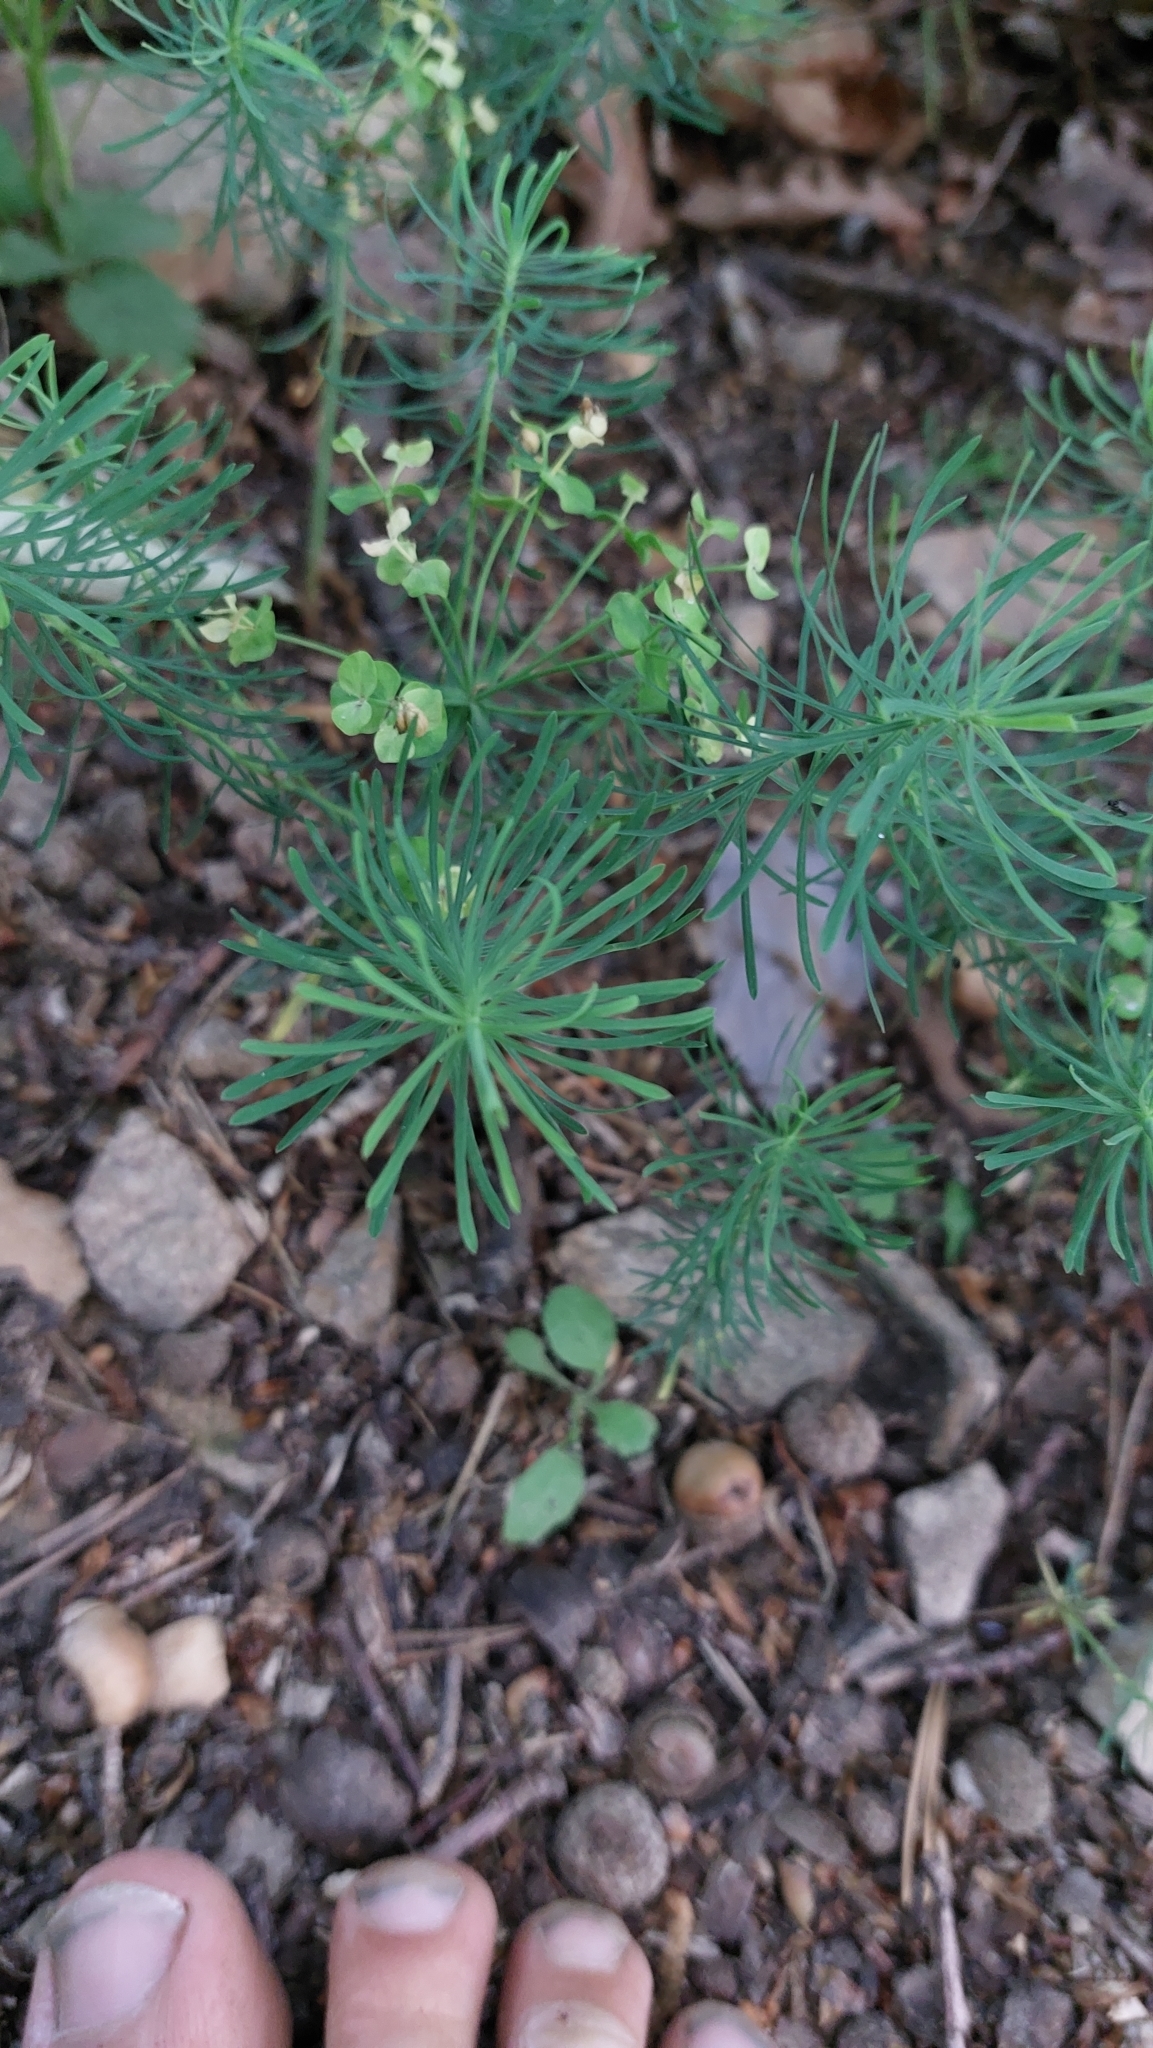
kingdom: Plantae
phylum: Tracheophyta
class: Magnoliopsida
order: Malpighiales
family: Euphorbiaceae
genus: Euphorbia
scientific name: Euphorbia cyparissias
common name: Cypress spurge
